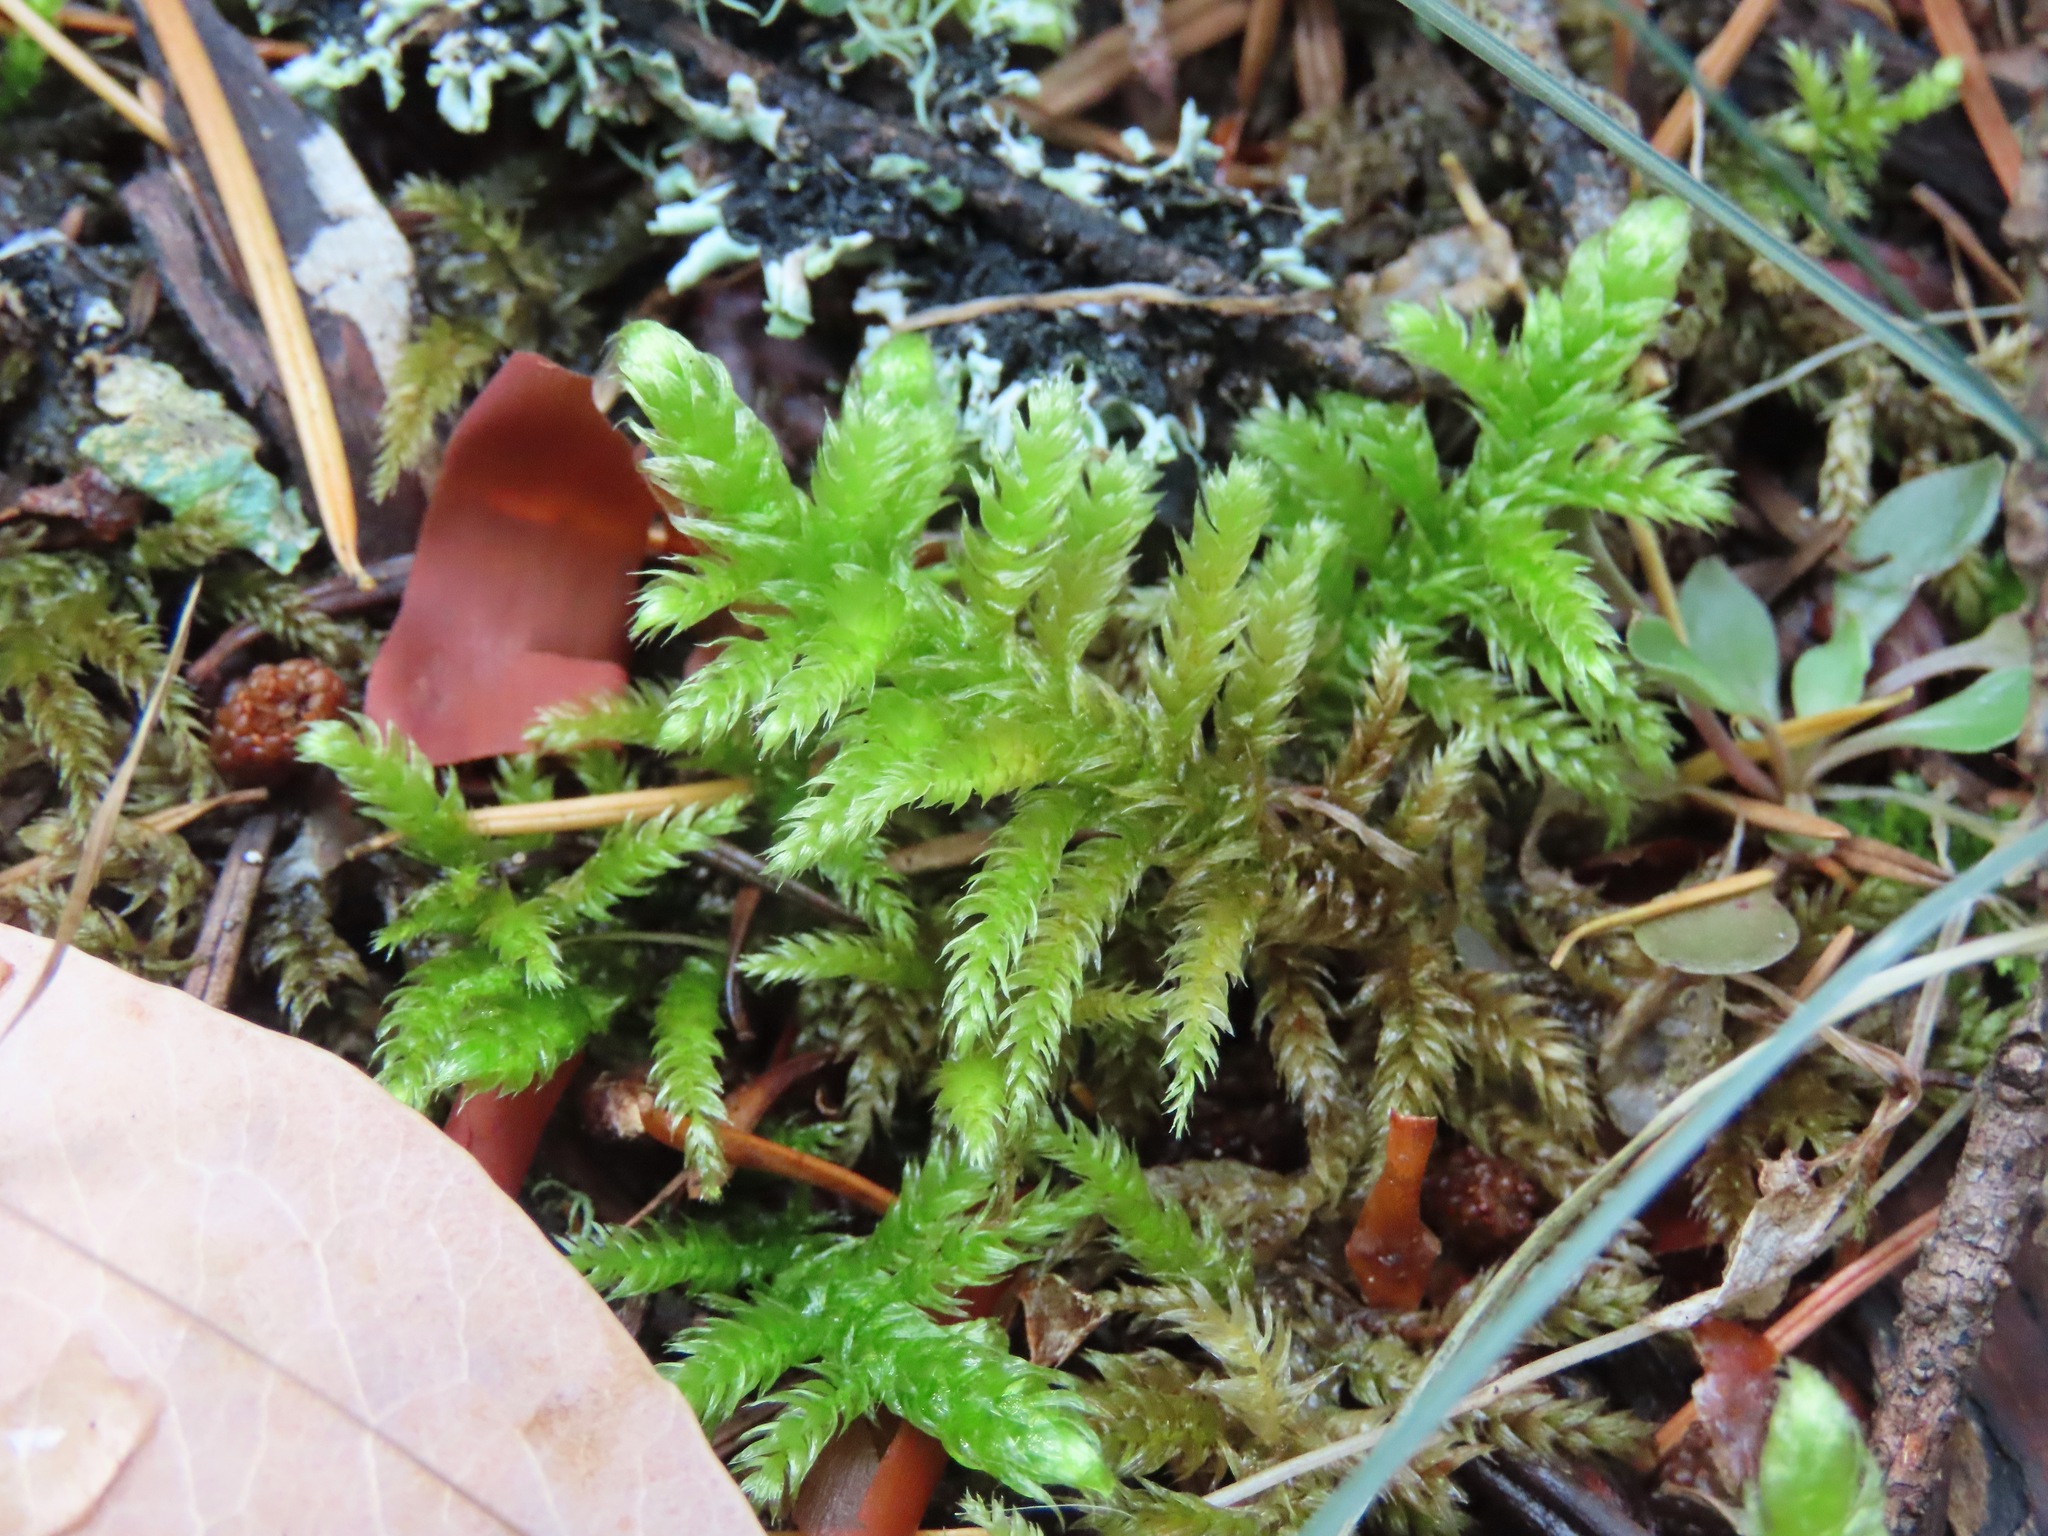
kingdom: Plantae
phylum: Bryophyta
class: Bryopsida
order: Hypnales
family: Brachytheciaceae
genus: Homalothecium
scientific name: Homalothecium megaptilum
